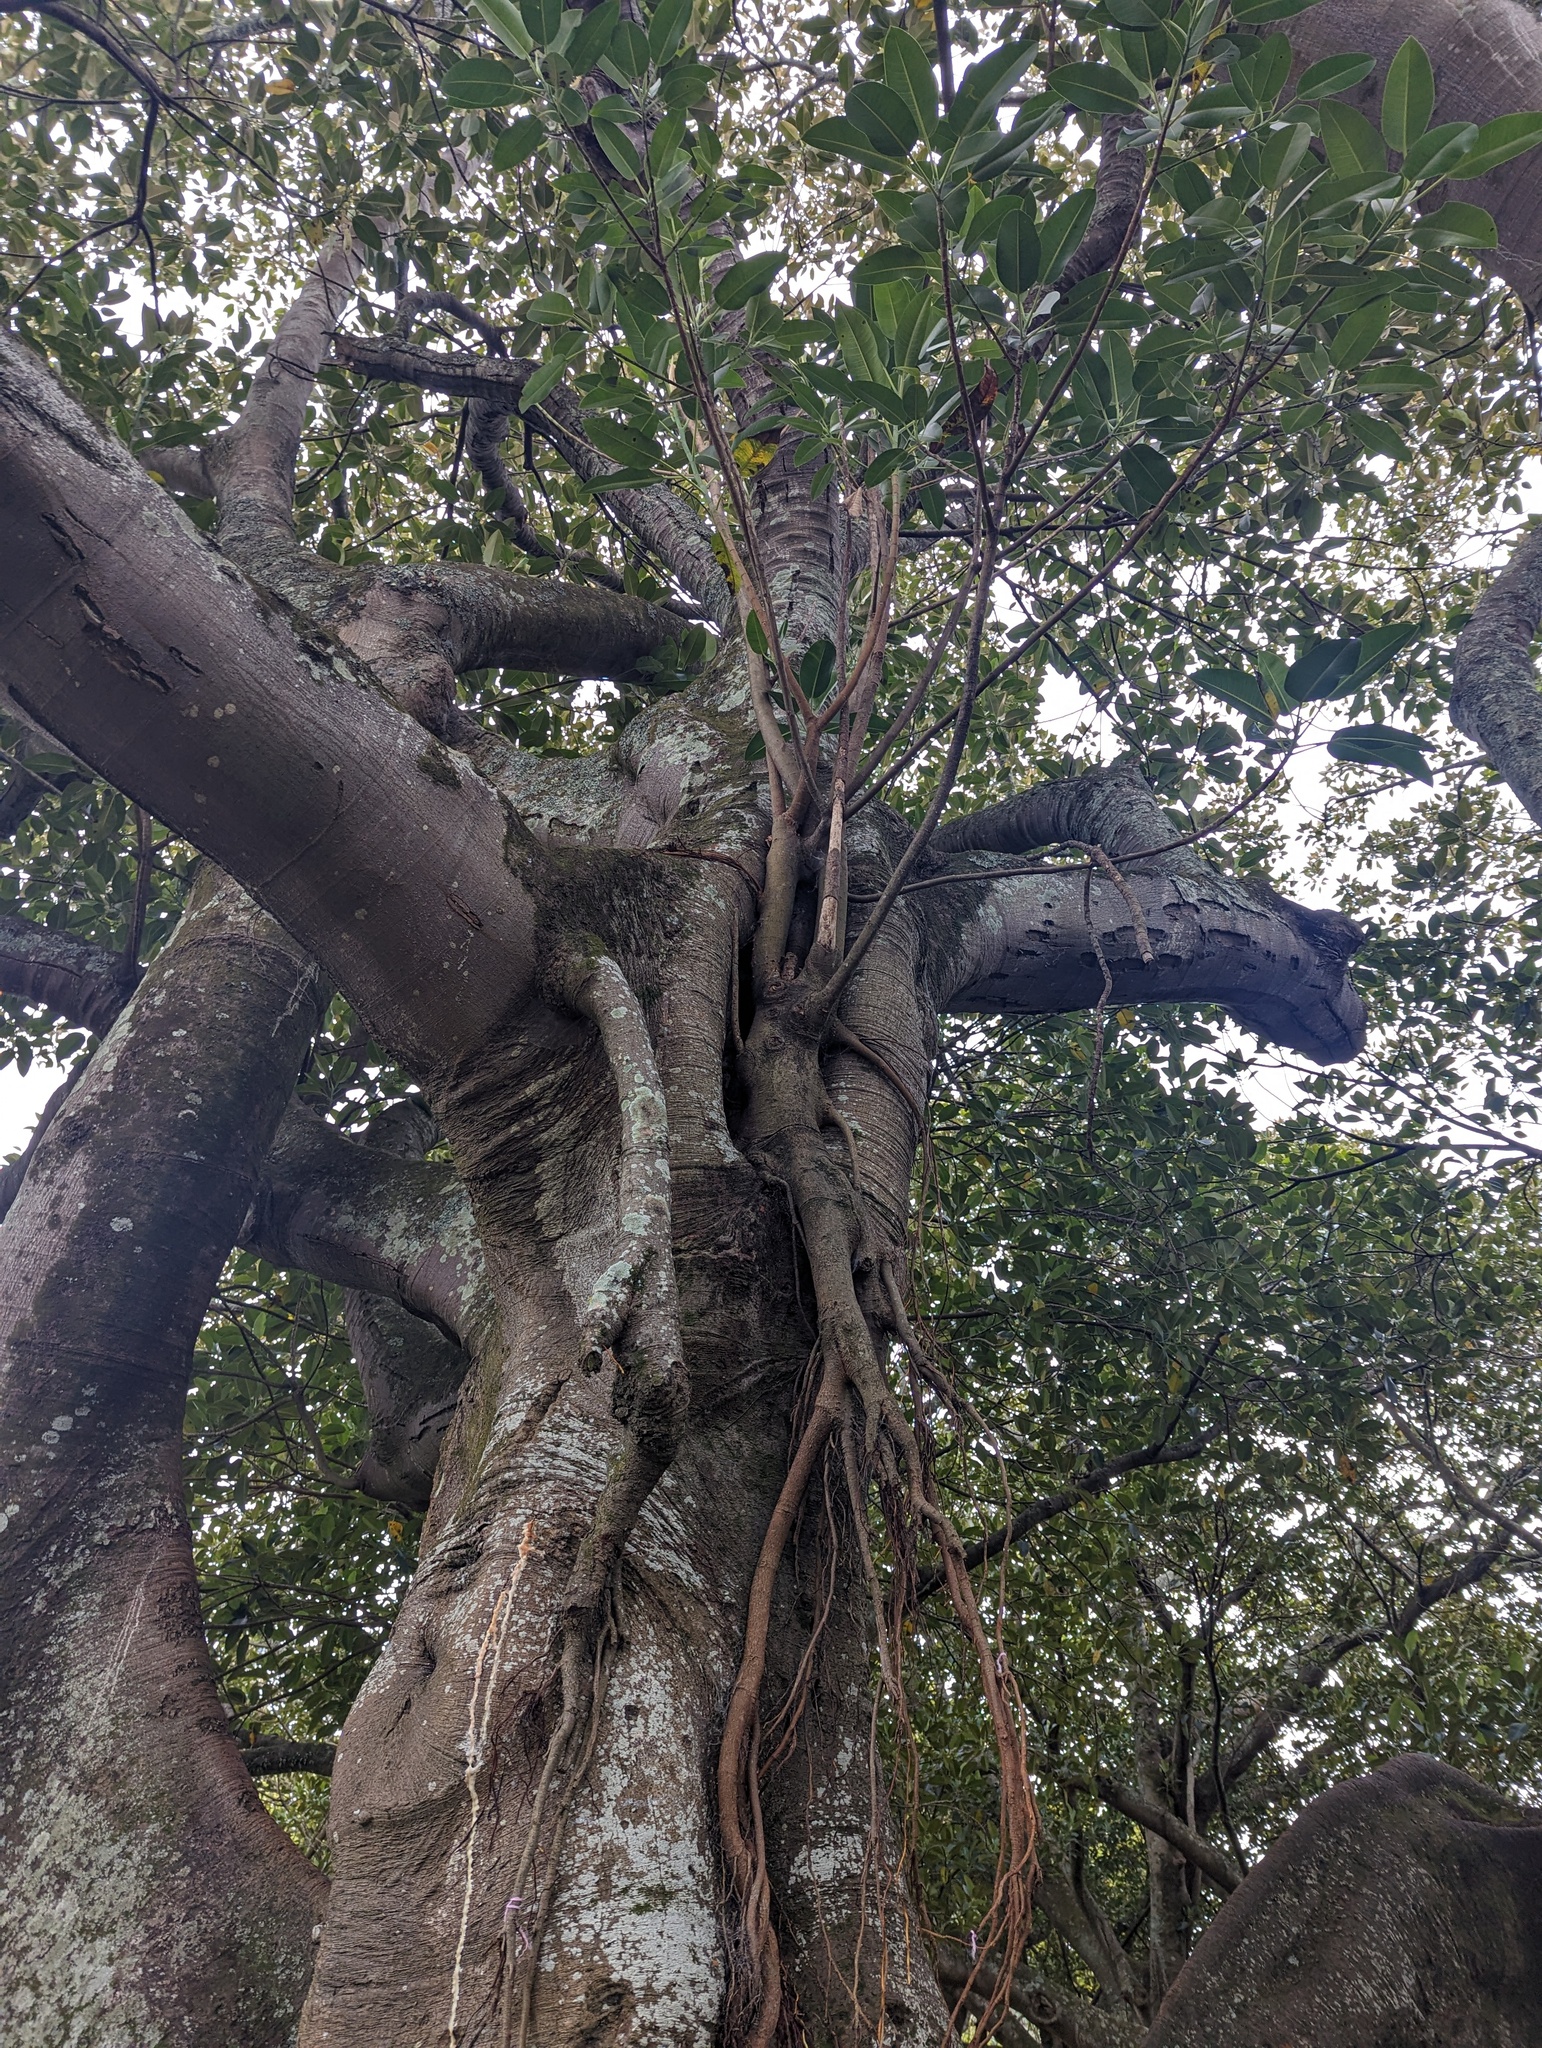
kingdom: Plantae
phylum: Tracheophyta
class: Magnoliopsida
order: Rosales
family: Moraceae
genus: Ficus
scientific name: Ficus macrophylla
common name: Moreton bay fig
